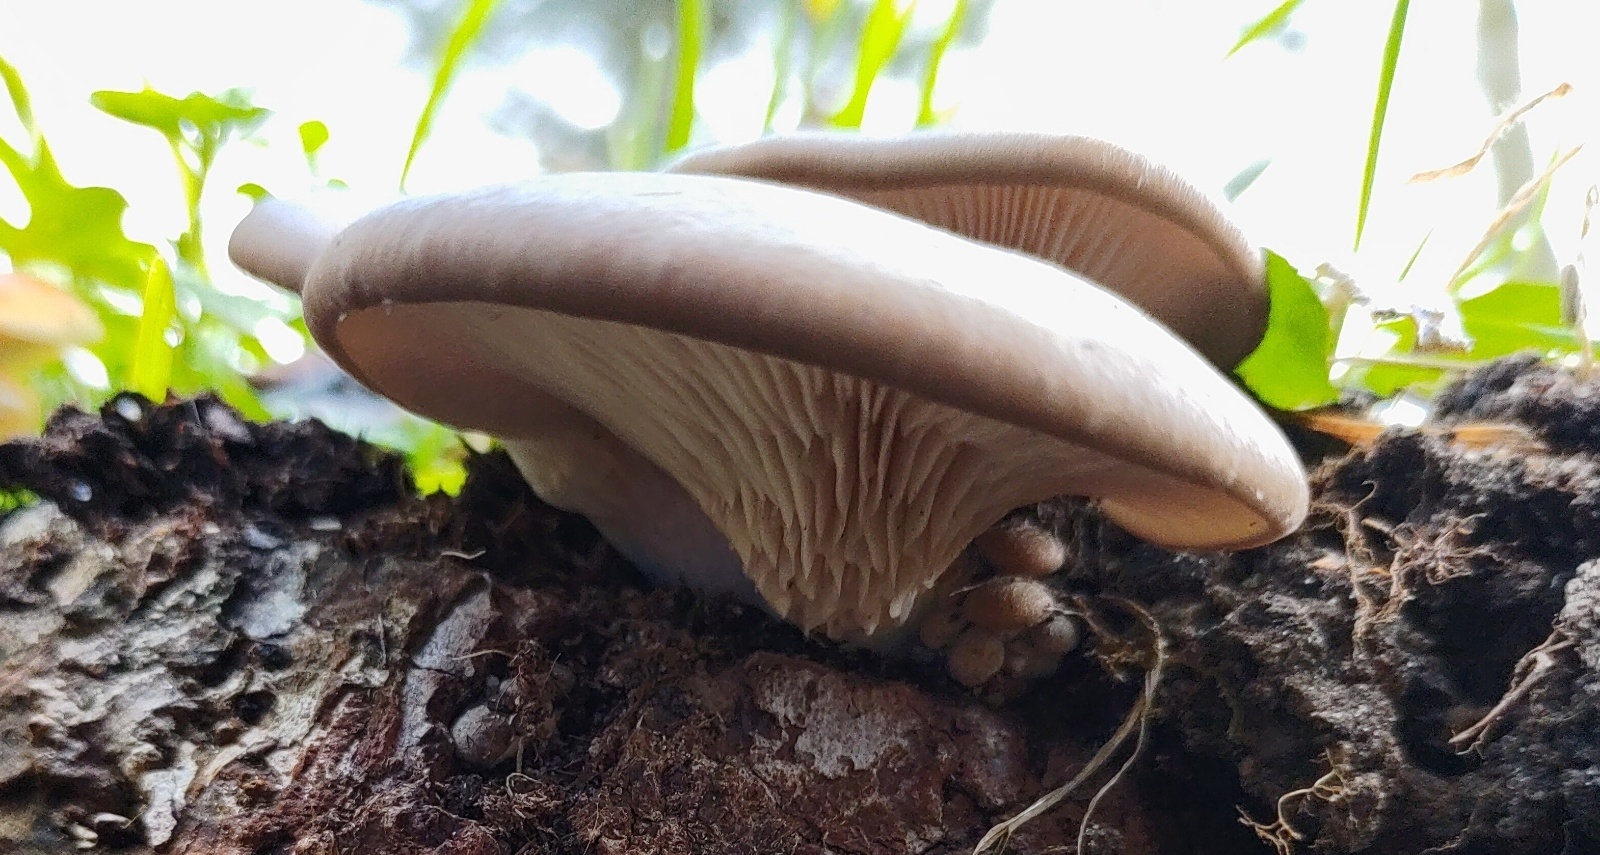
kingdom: Fungi
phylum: Basidiomycota
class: Agaricomycetes
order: Agaricales
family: Pleurotaceae
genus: Pleurotus
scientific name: Pleurotus ostreatus
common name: Oyster mushroom
